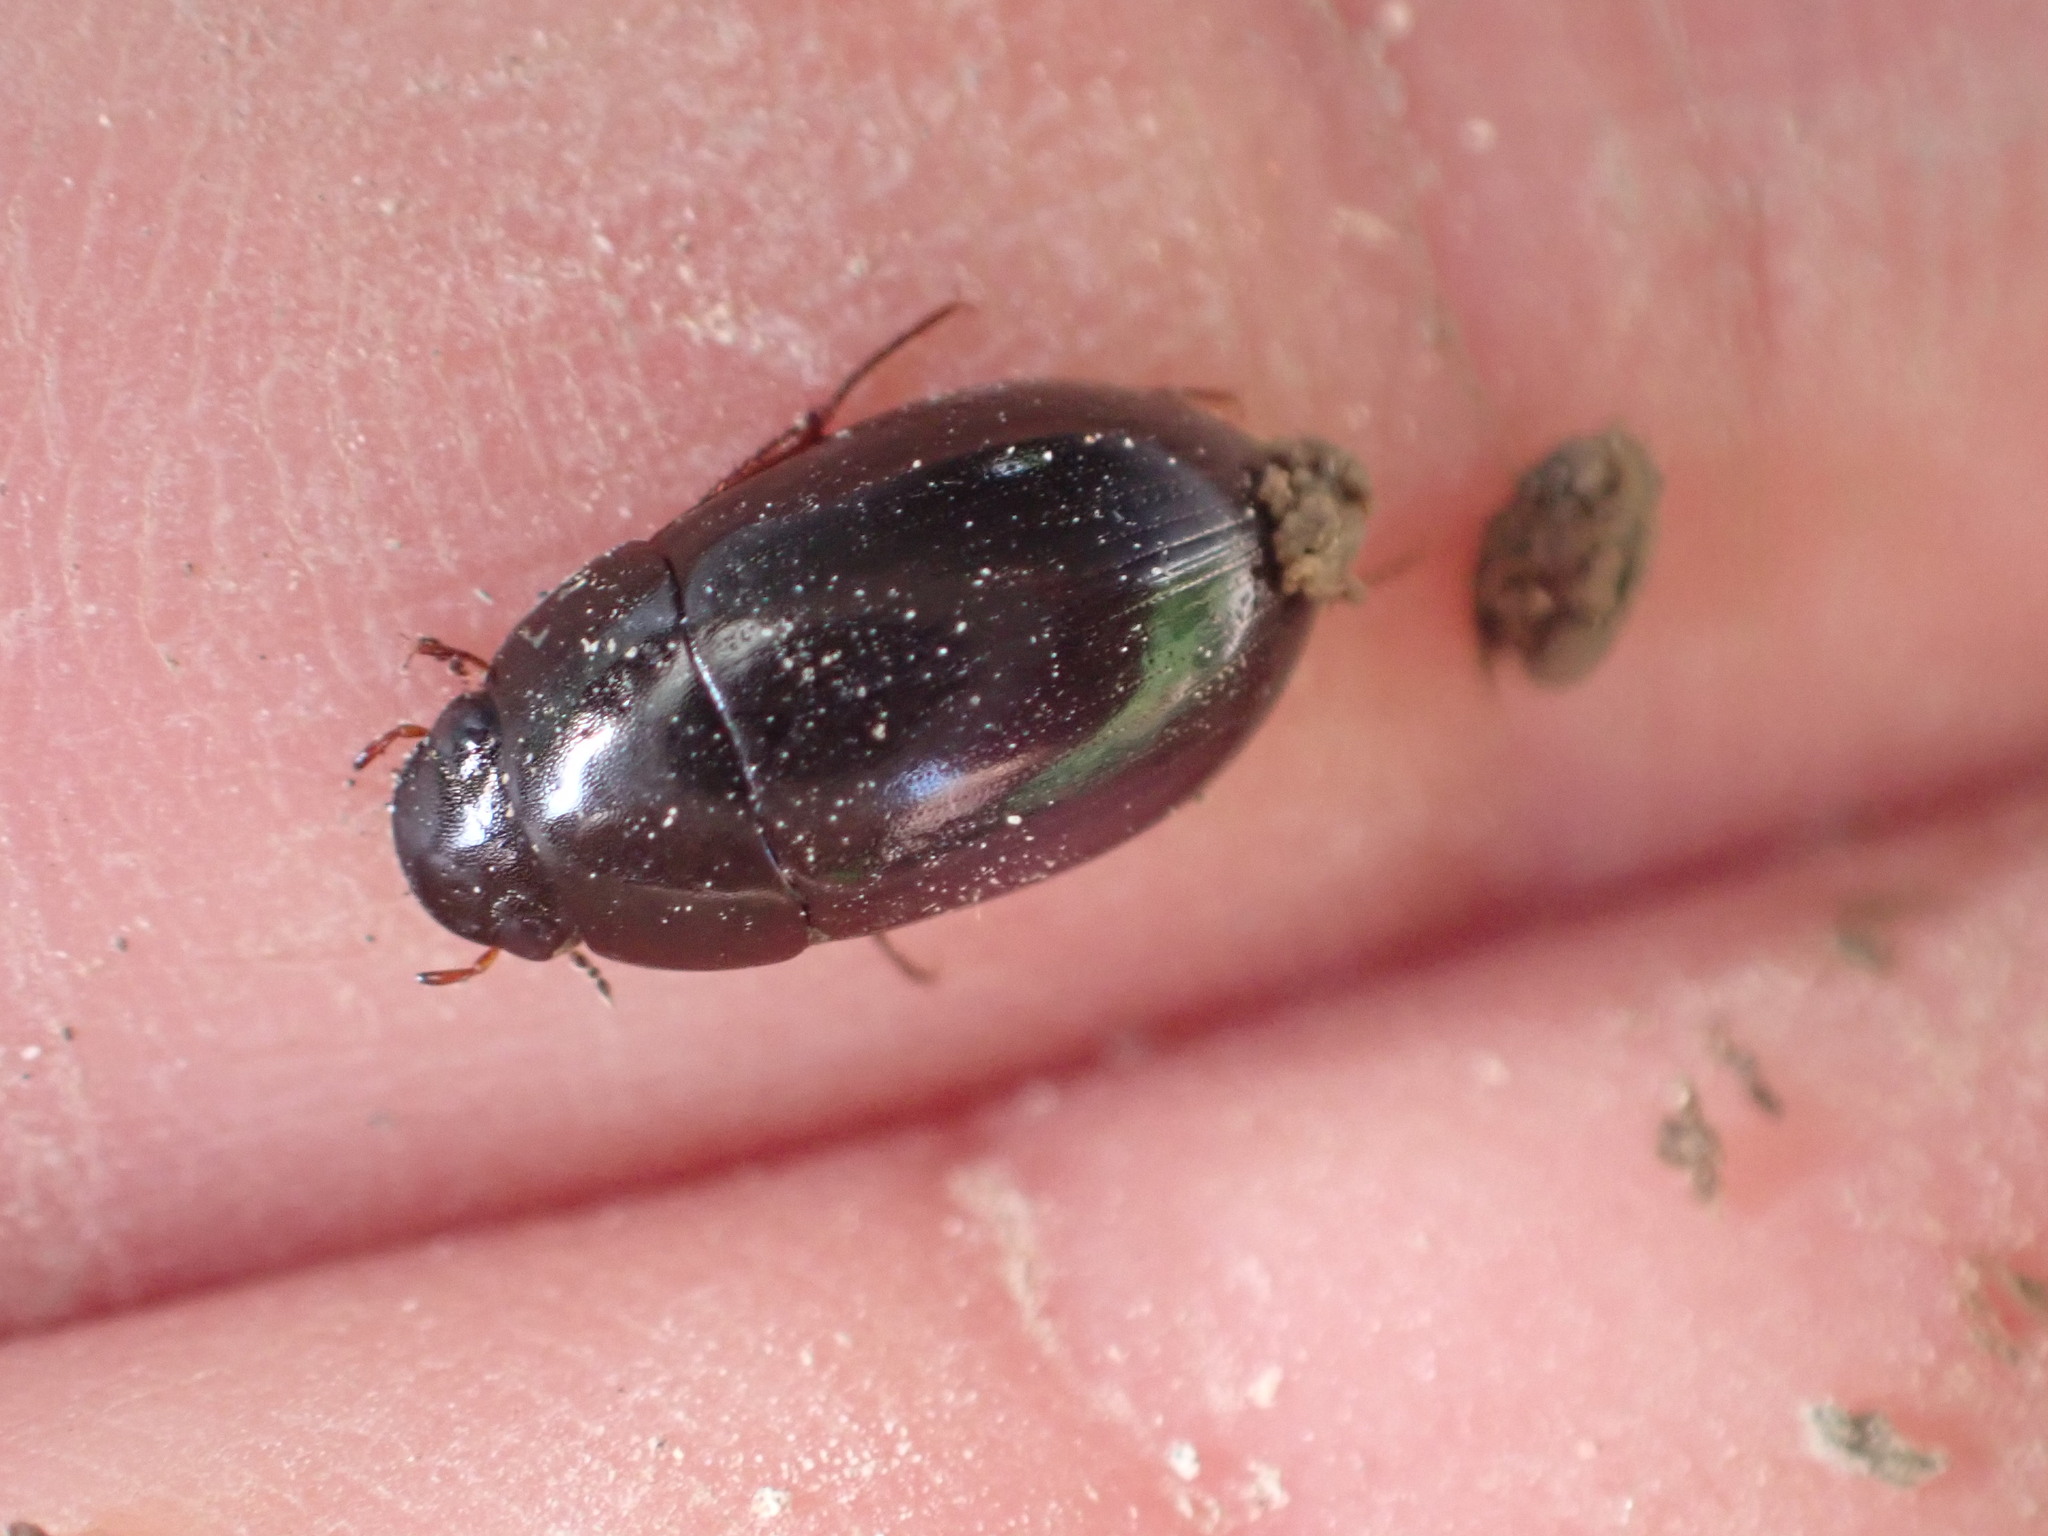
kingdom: Animalia
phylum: Arthropoda
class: Insecta
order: Coleoptera
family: Hydrophilidae
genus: Limnoxenus
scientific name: Limnoxenus zealandicus
